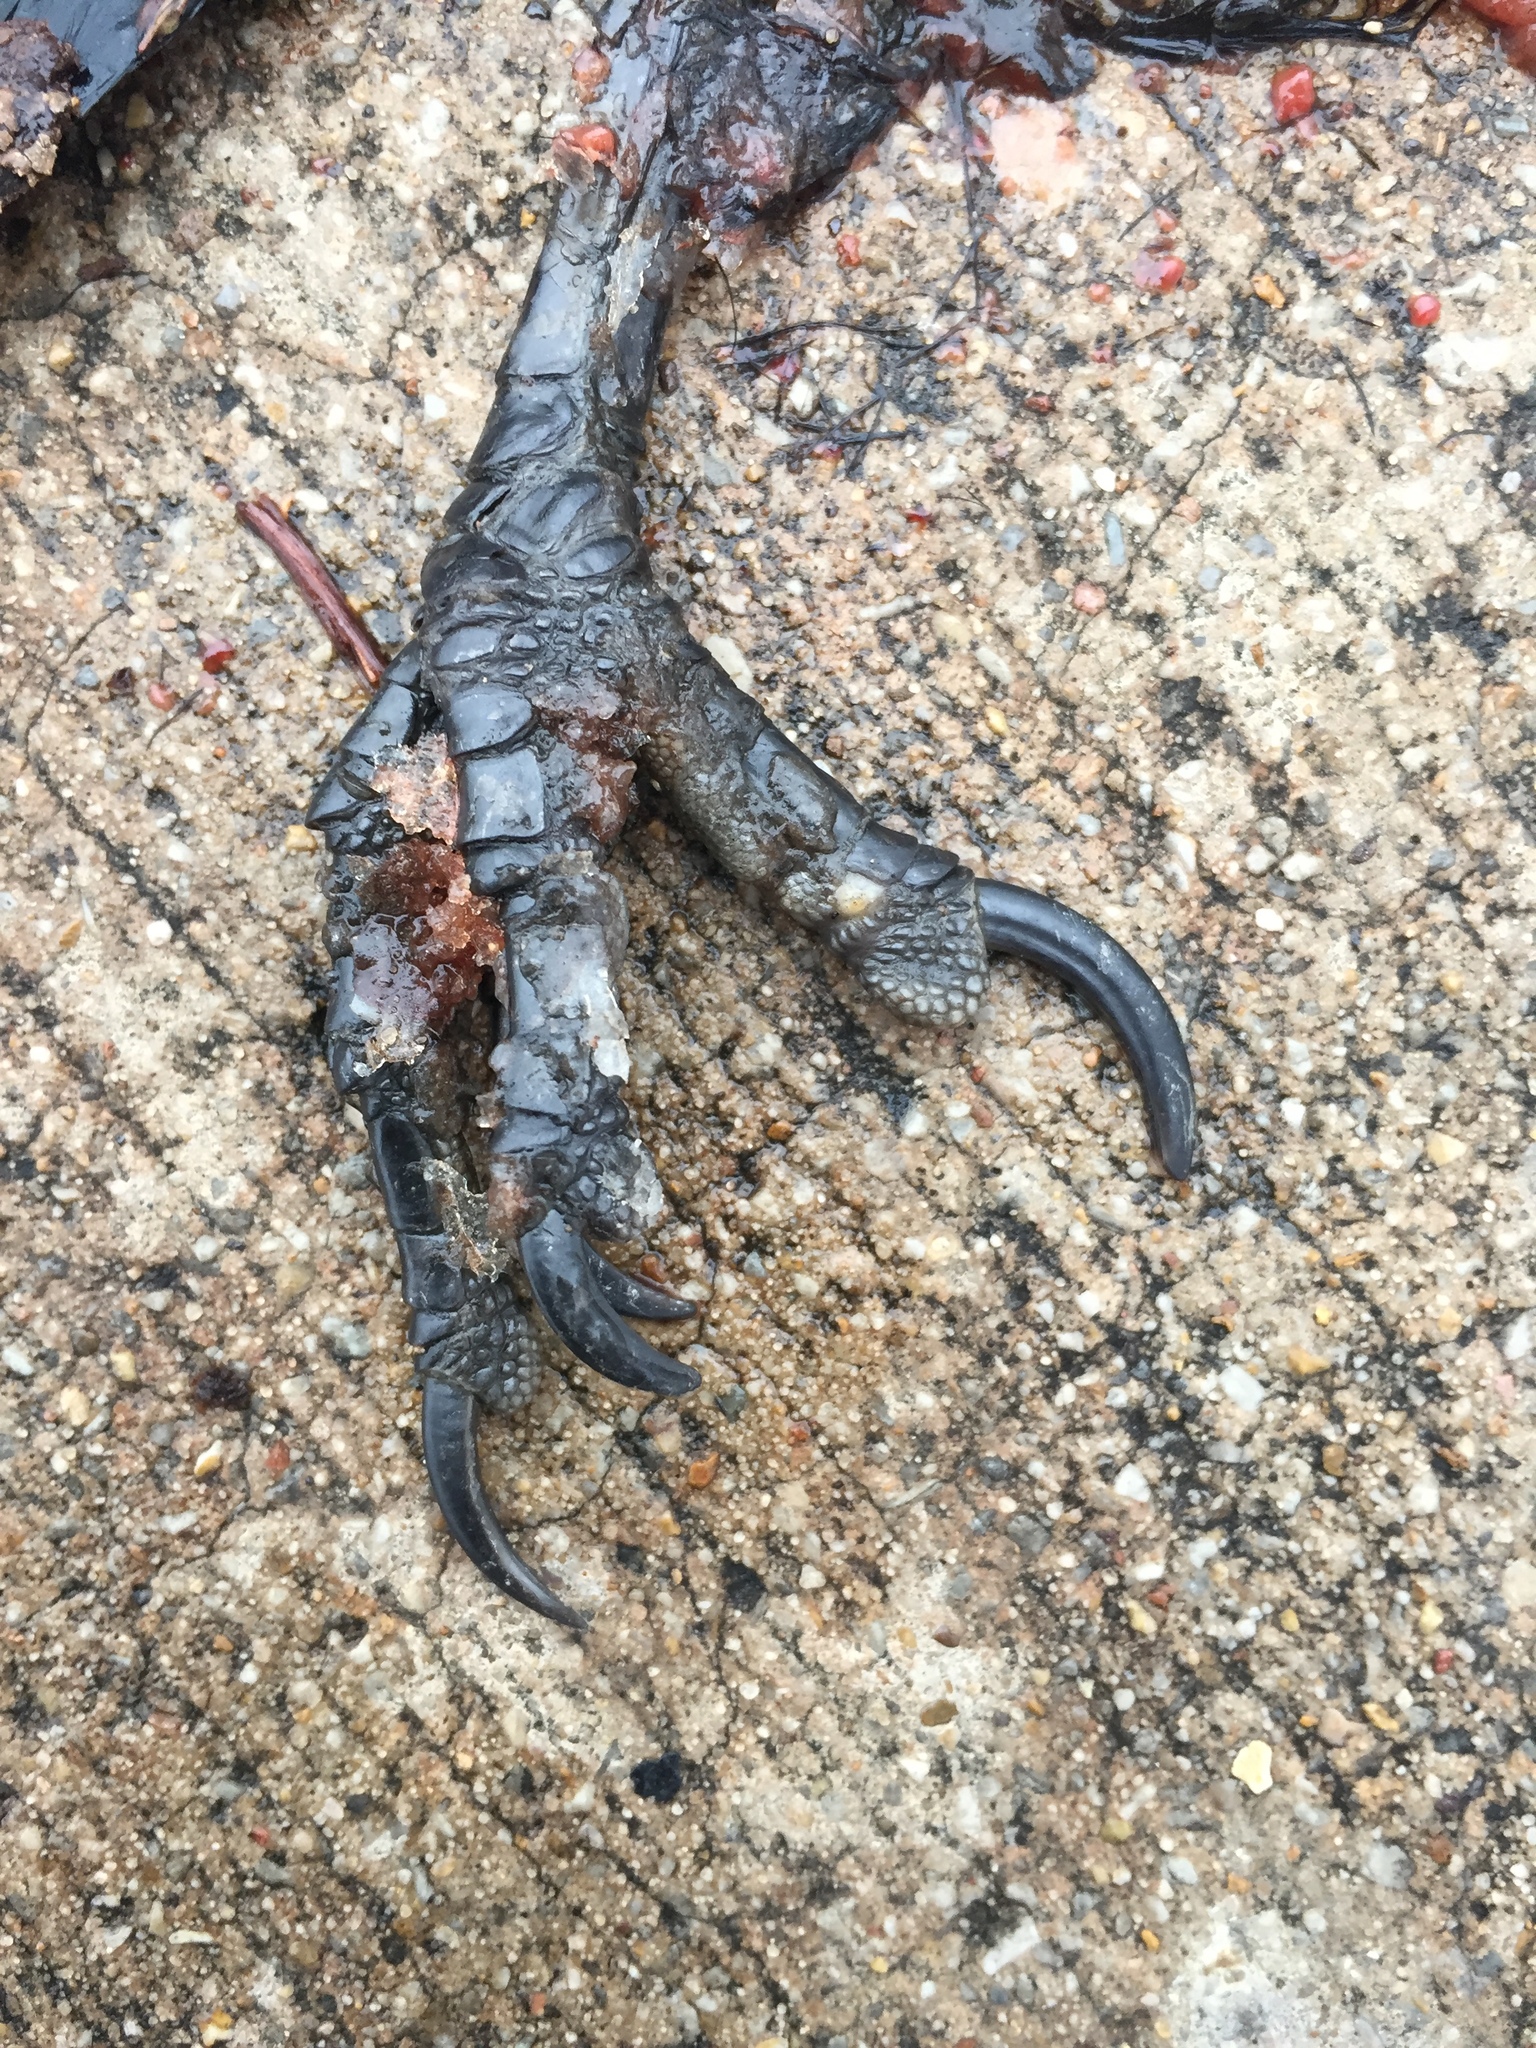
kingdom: Animalia
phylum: Chordata
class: Aves
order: Passeriformes
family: Icteridae
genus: Quiscalus
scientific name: Quiscalus mexicanus
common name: Great-tailed grackle
